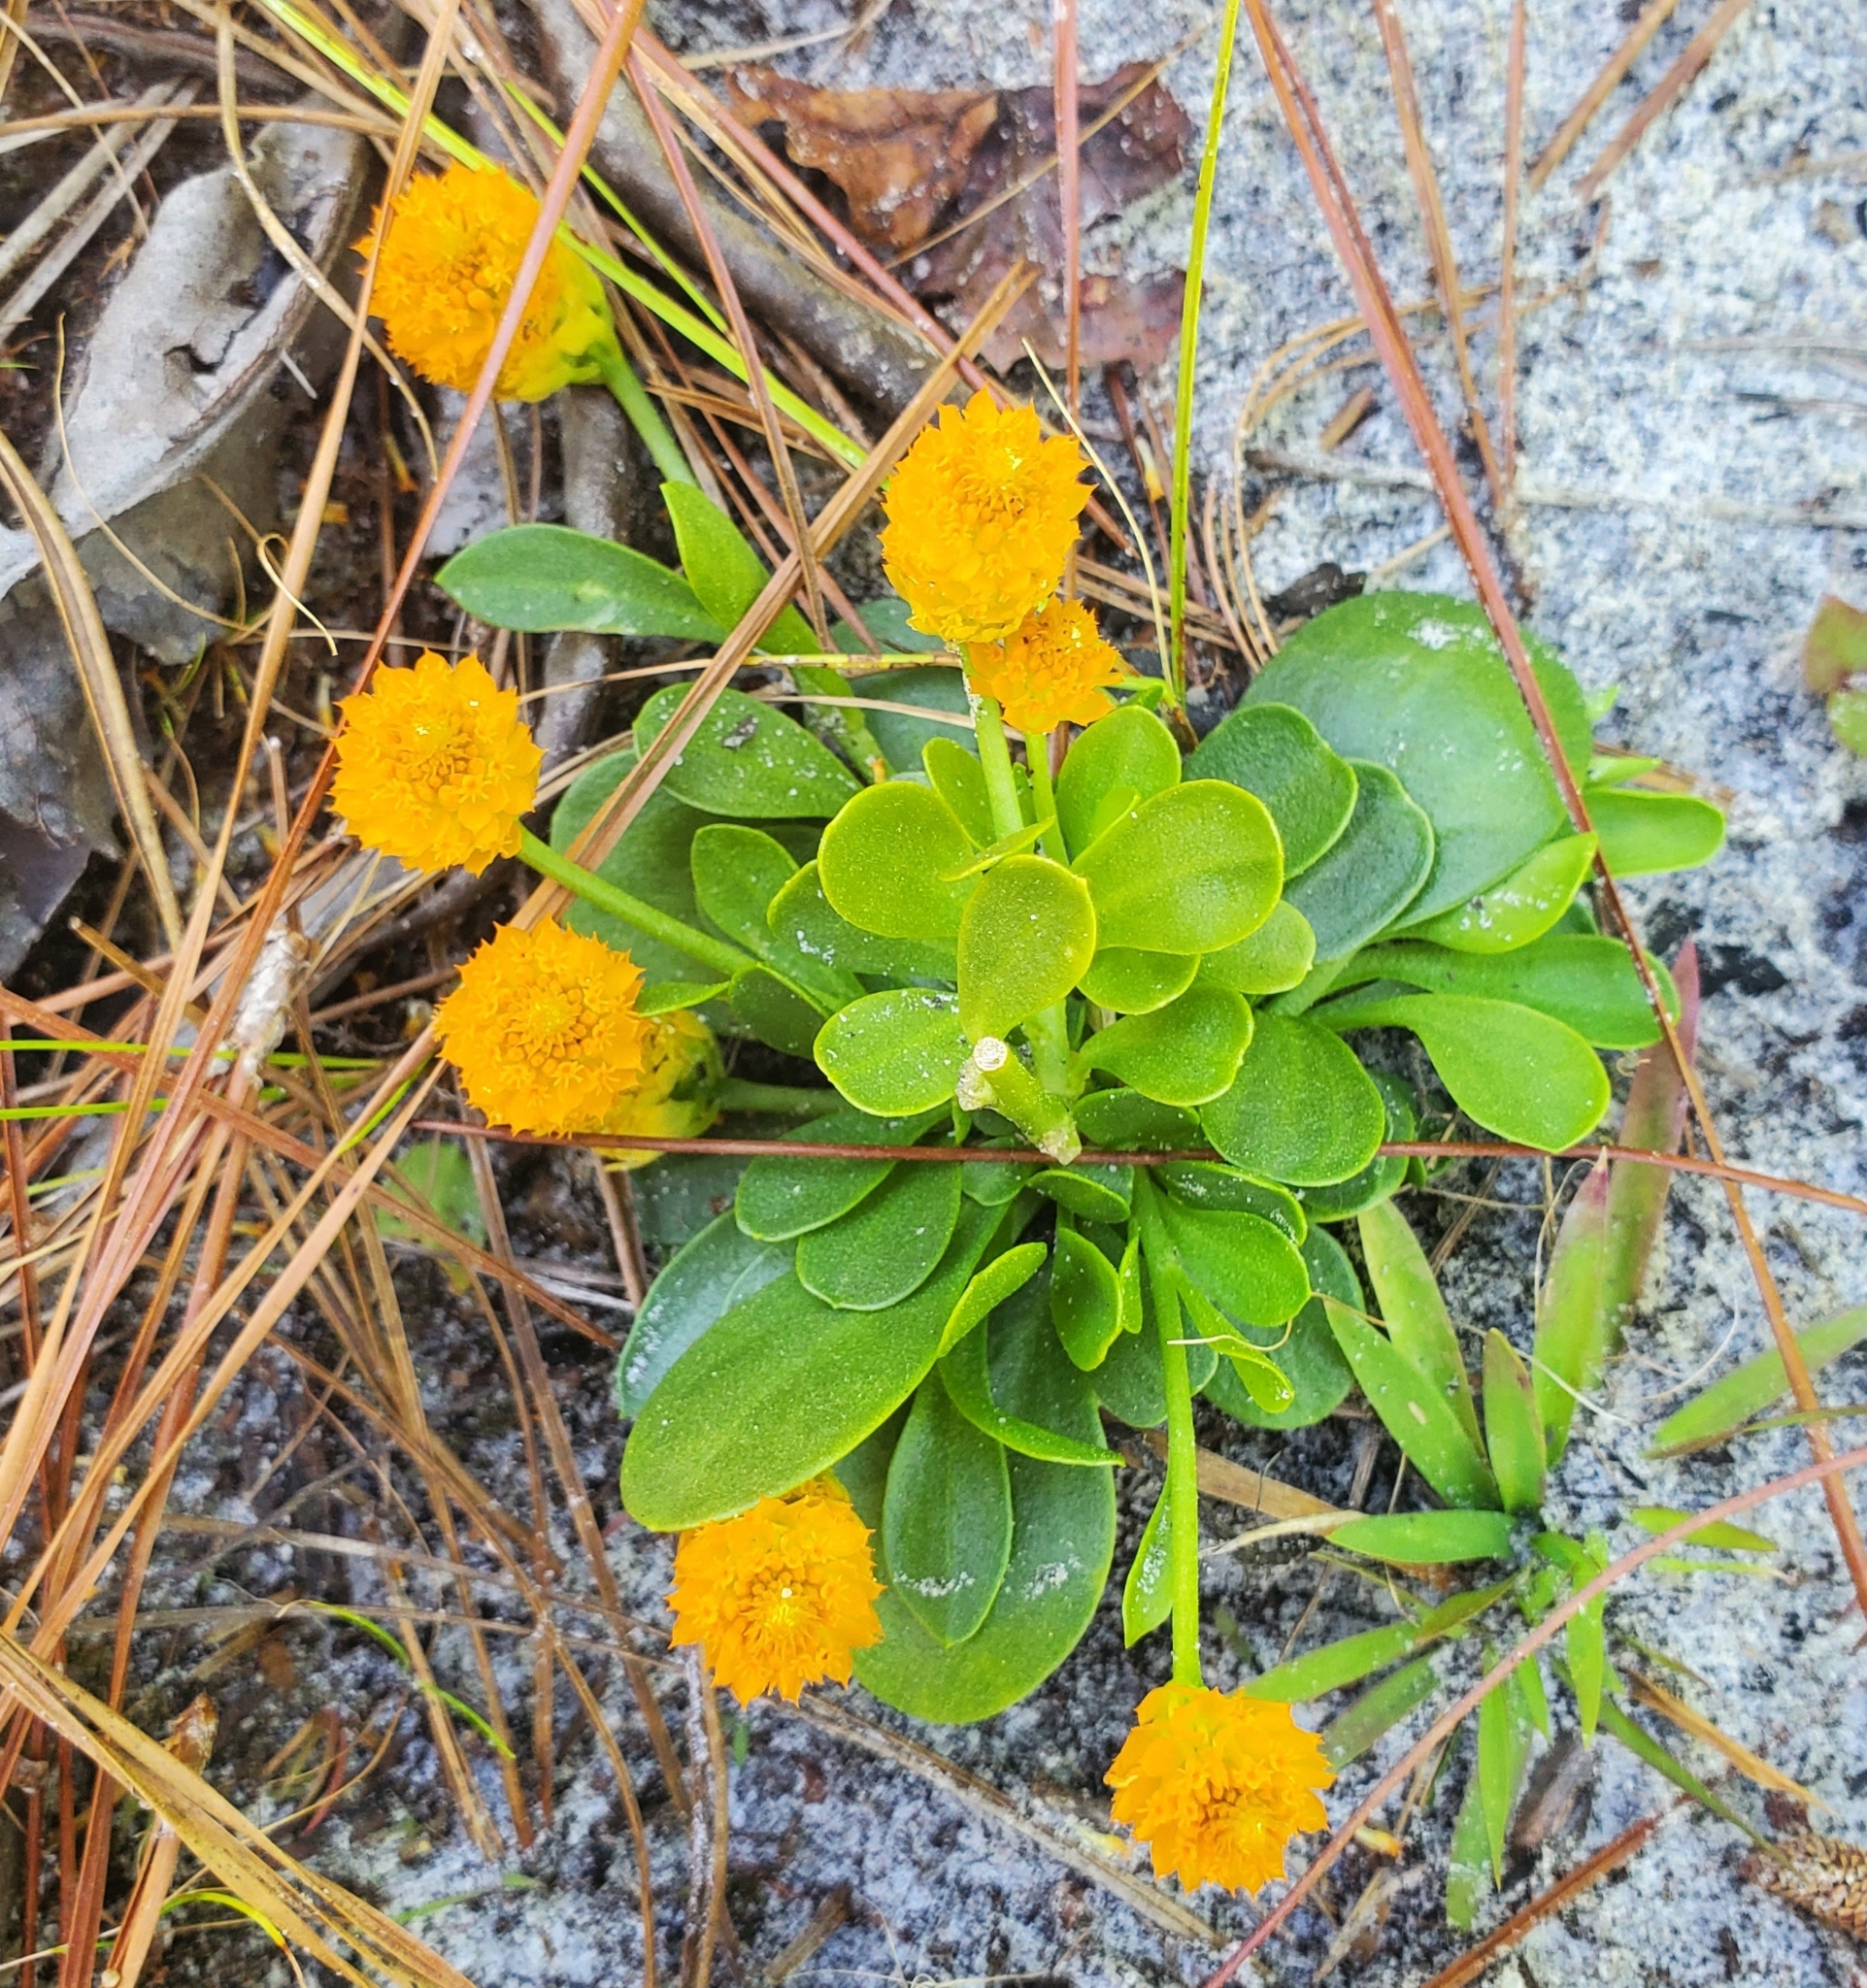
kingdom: Plantae
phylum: Tracheophyta
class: Magnoliopsida
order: Fabales
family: Polygalaceae
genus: Polygala
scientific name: Polygala lutea
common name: Orange milkwort
